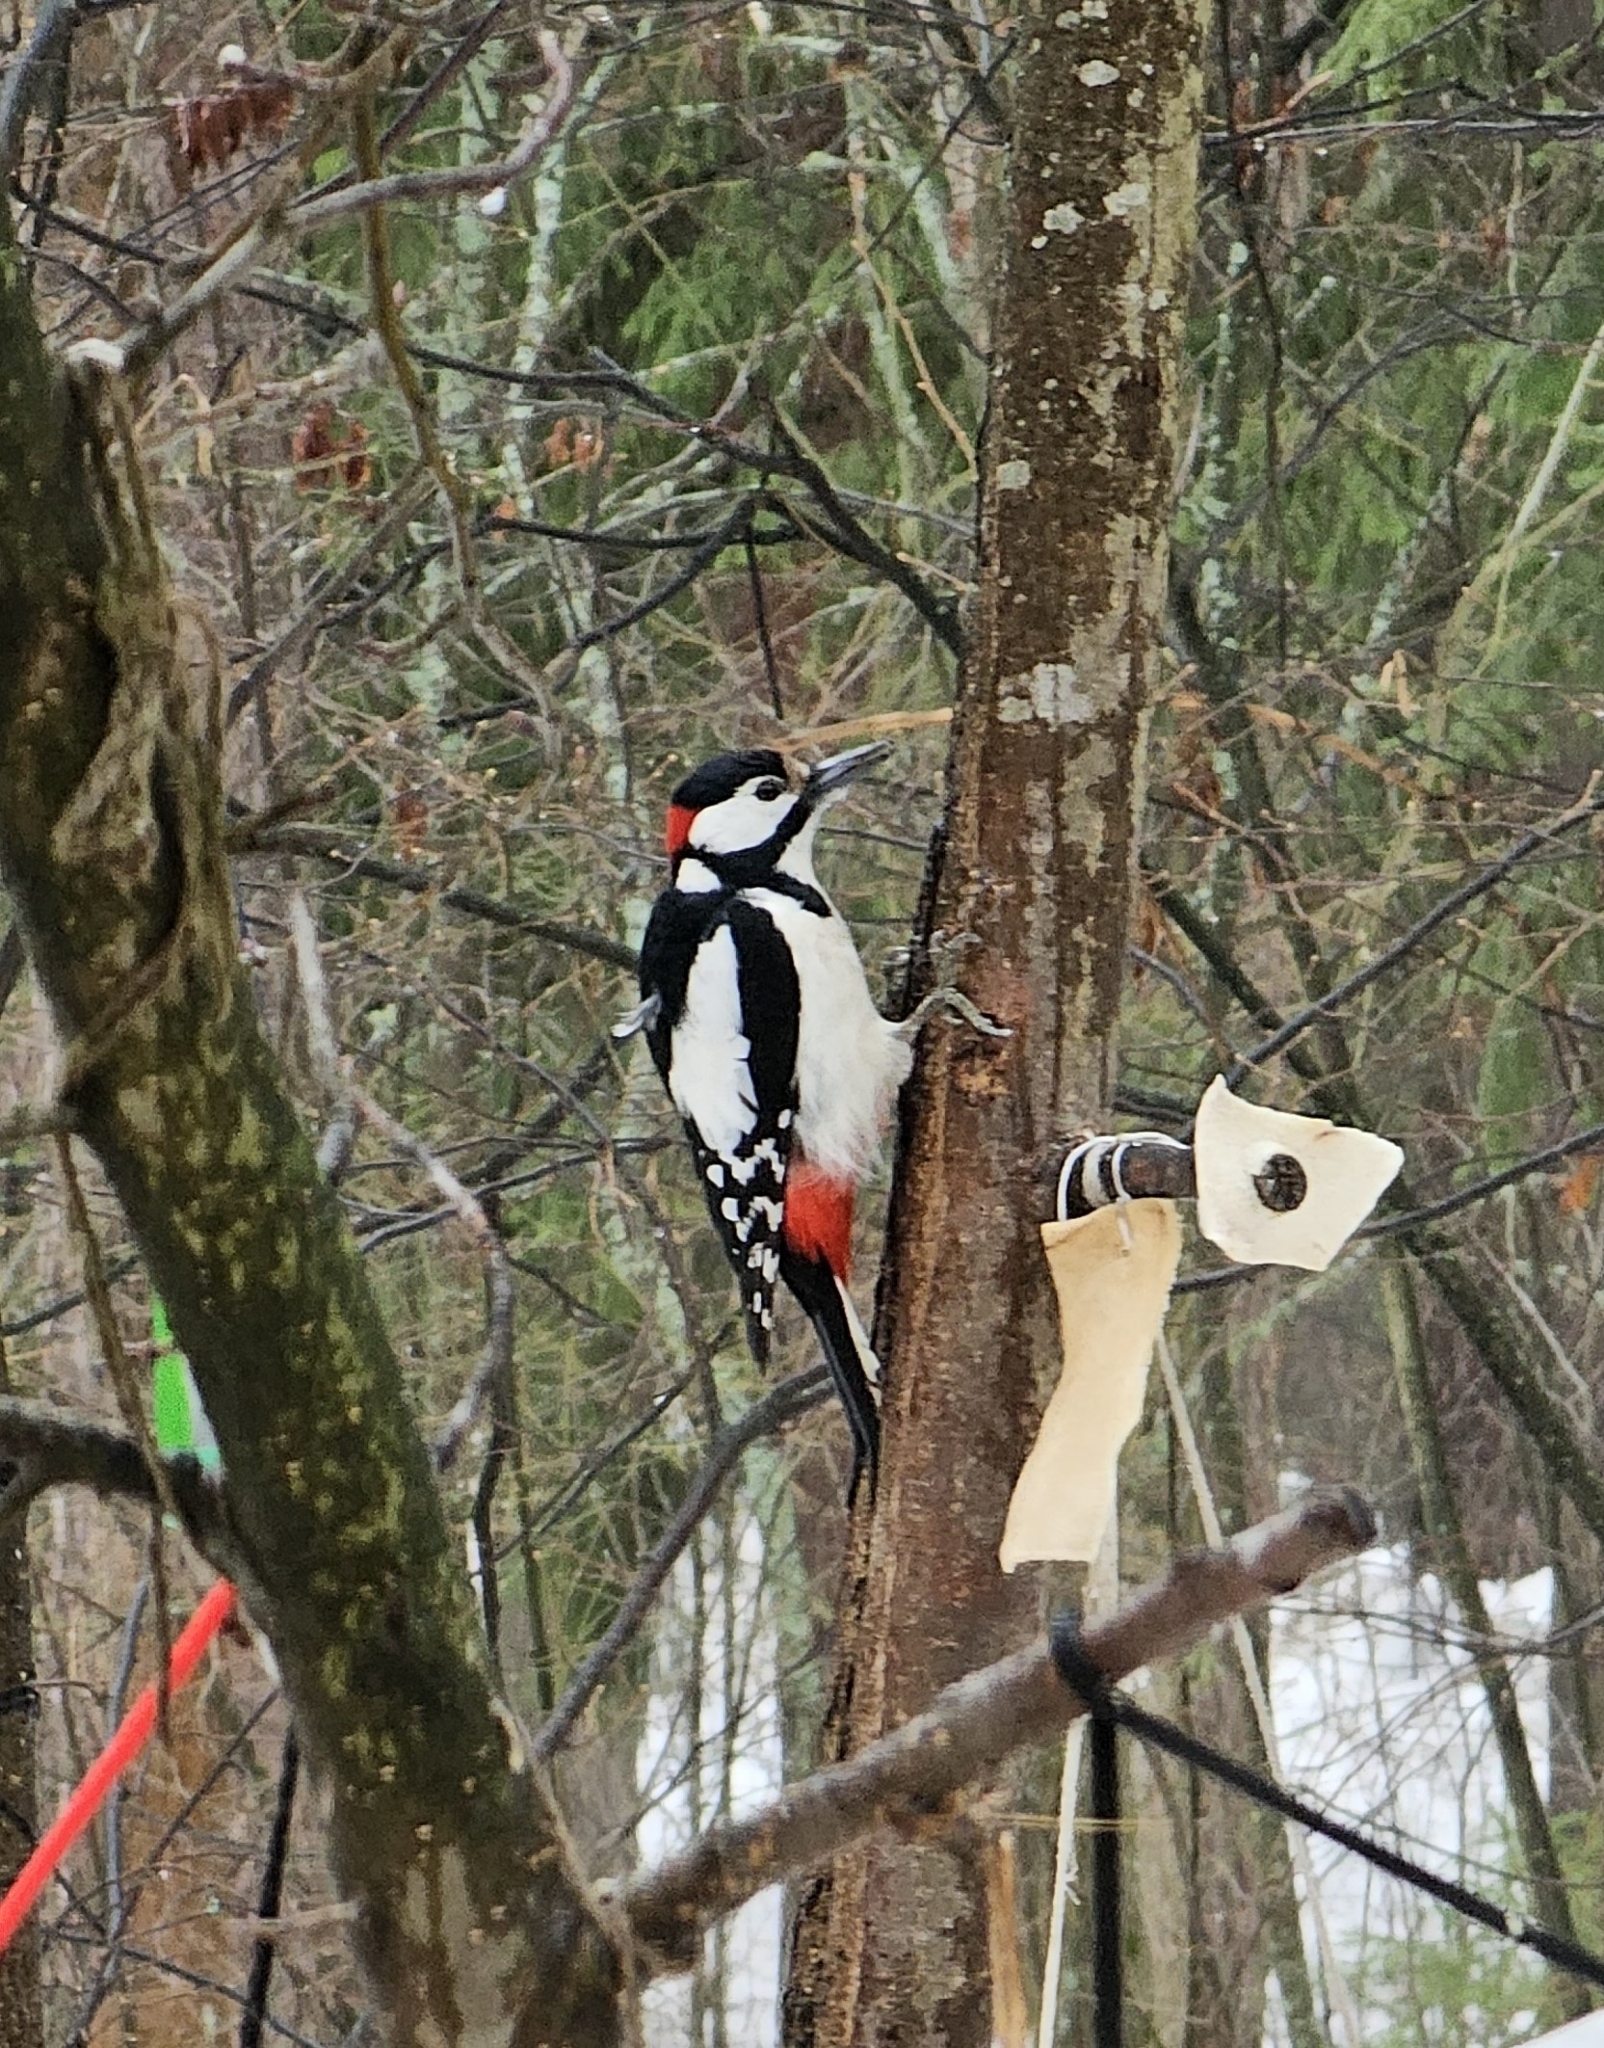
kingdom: Animalia
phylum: Chordata
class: Aves
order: Piciformes
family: Picidae
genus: Dendrocopos
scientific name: Dendrocopos major
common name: Great spotted woodpecker
